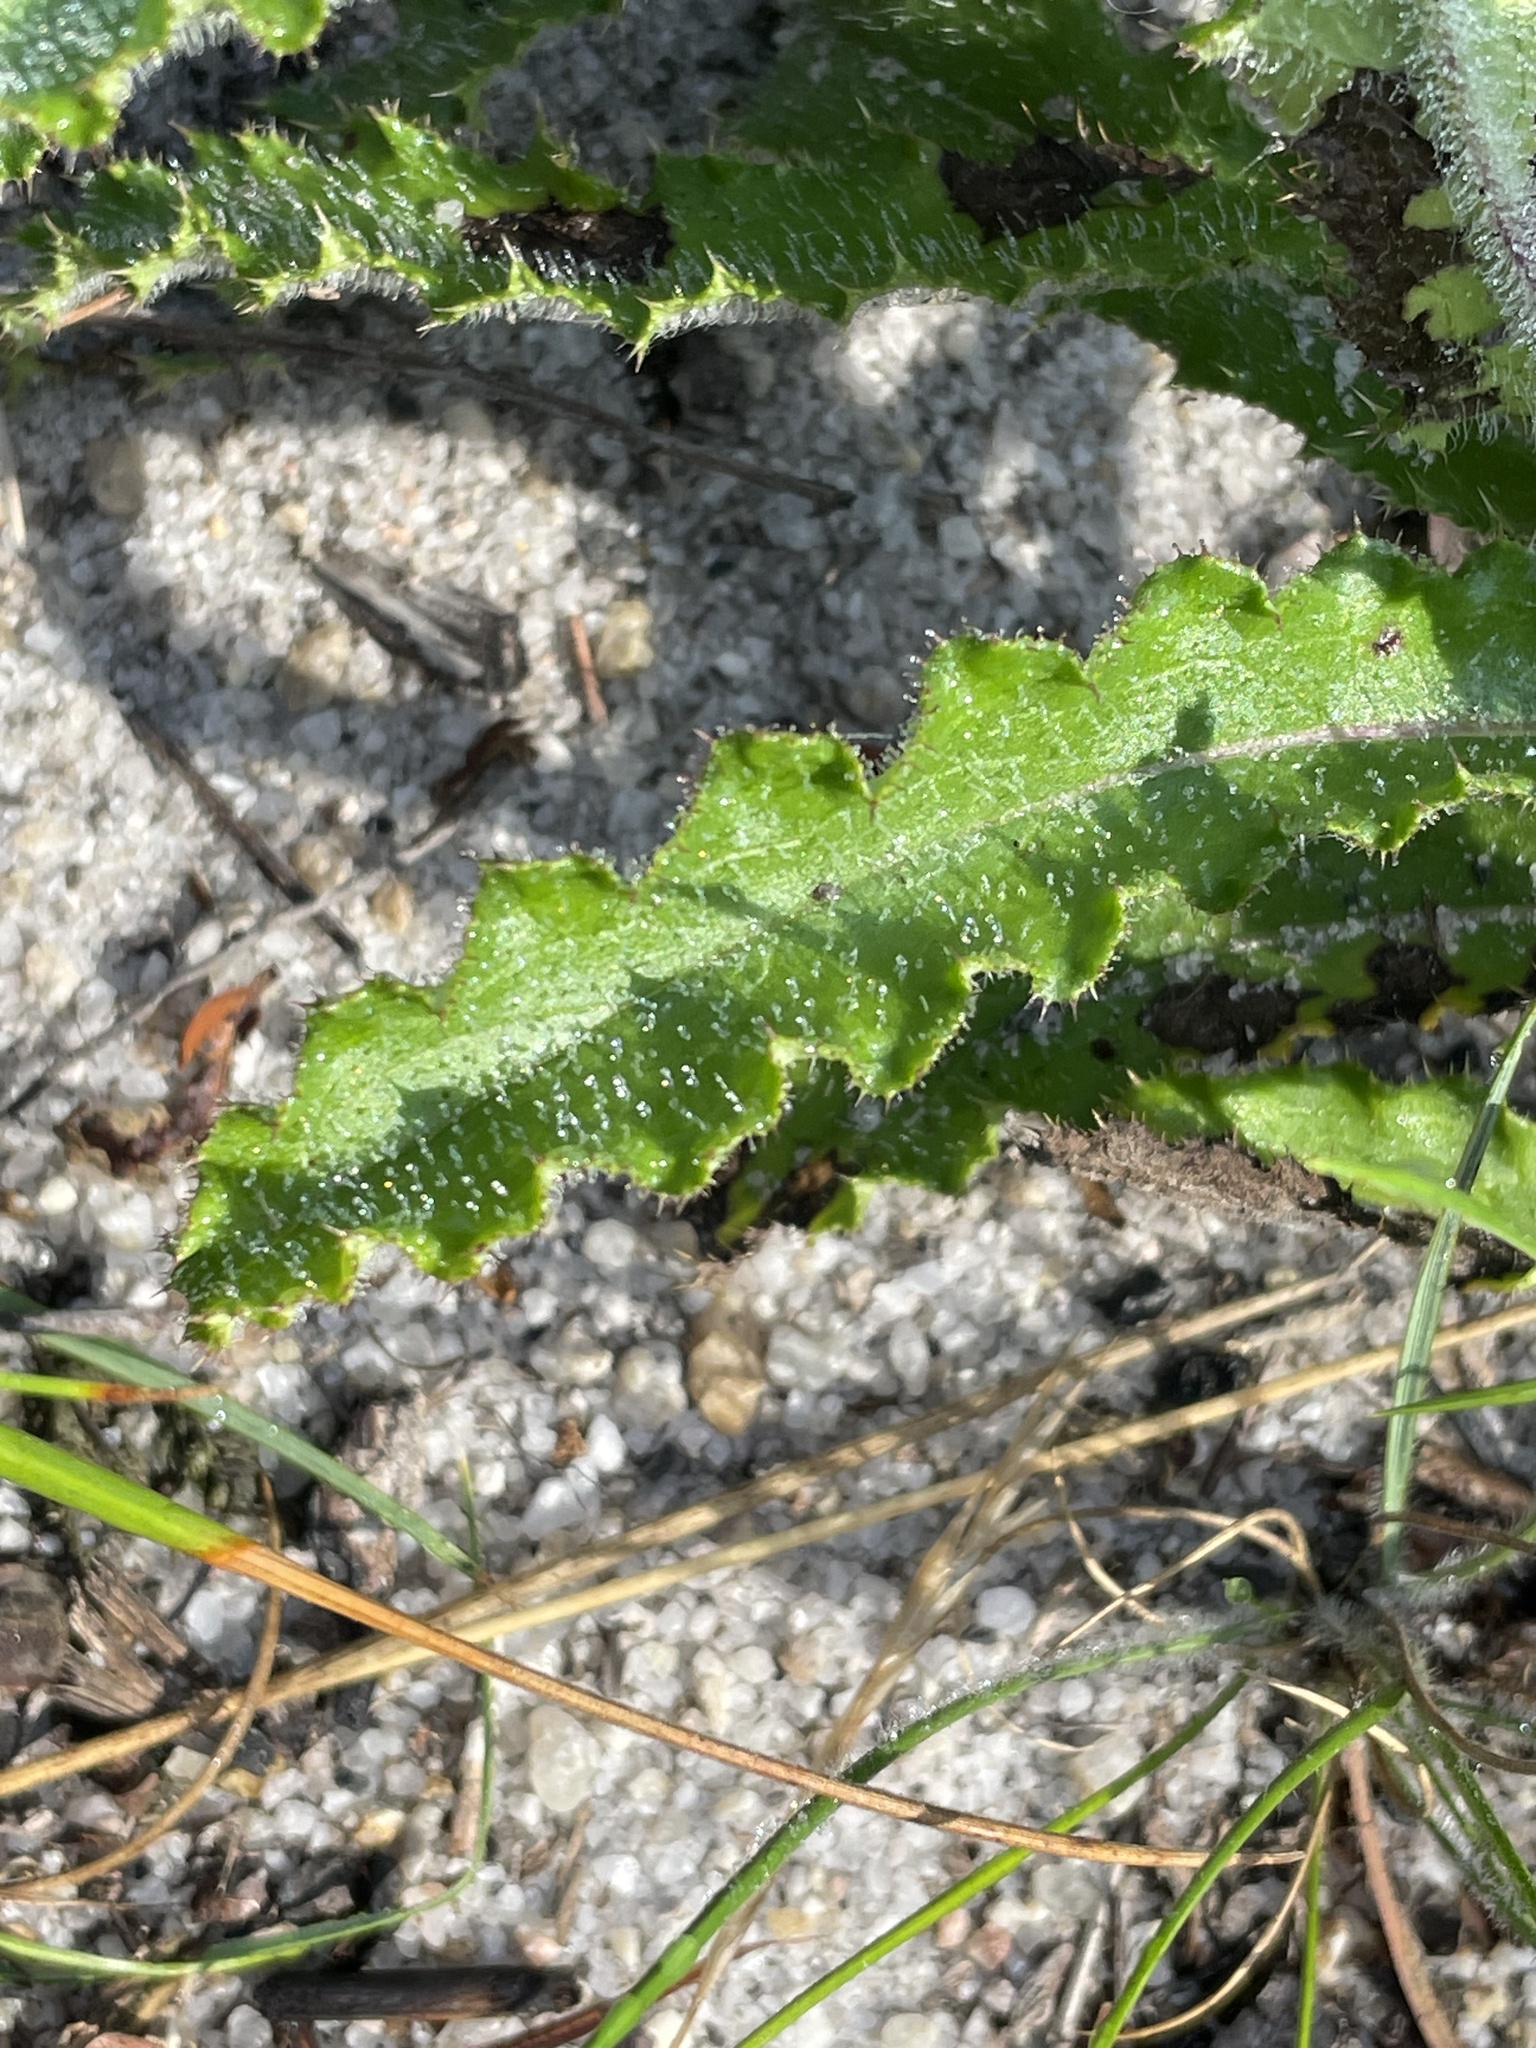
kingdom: Plantae
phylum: Tracheophyta
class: Magnoliopsida
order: Asterales
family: Asteraceae
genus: Cirsium
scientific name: Cirsium repandum
